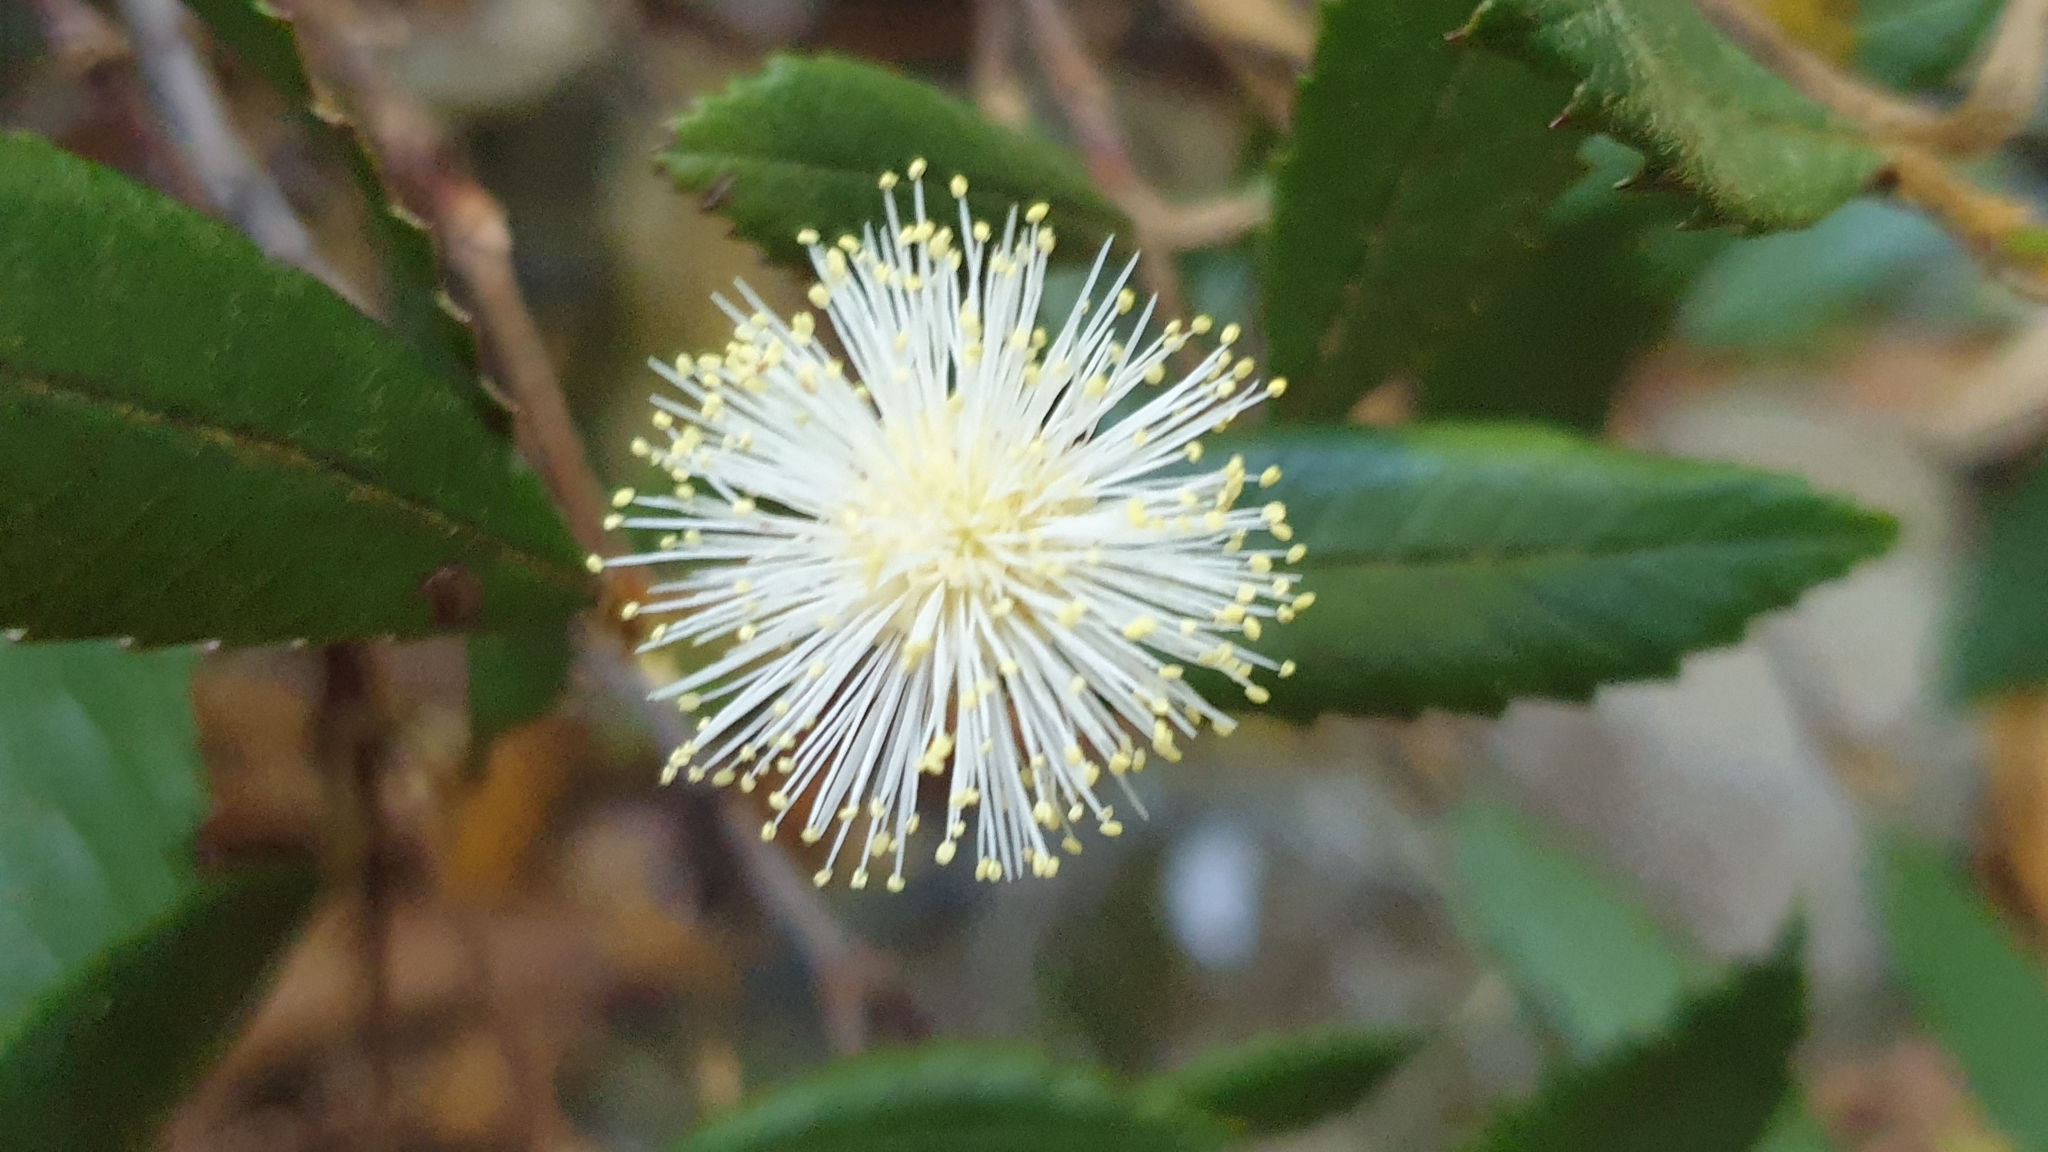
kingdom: Plantae
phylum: Tracheophyta
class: Magnoliopsida
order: Oxalidales
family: Cunoniaceae
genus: Callicoma
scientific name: Callicoma serratifolia
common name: Black wattle
